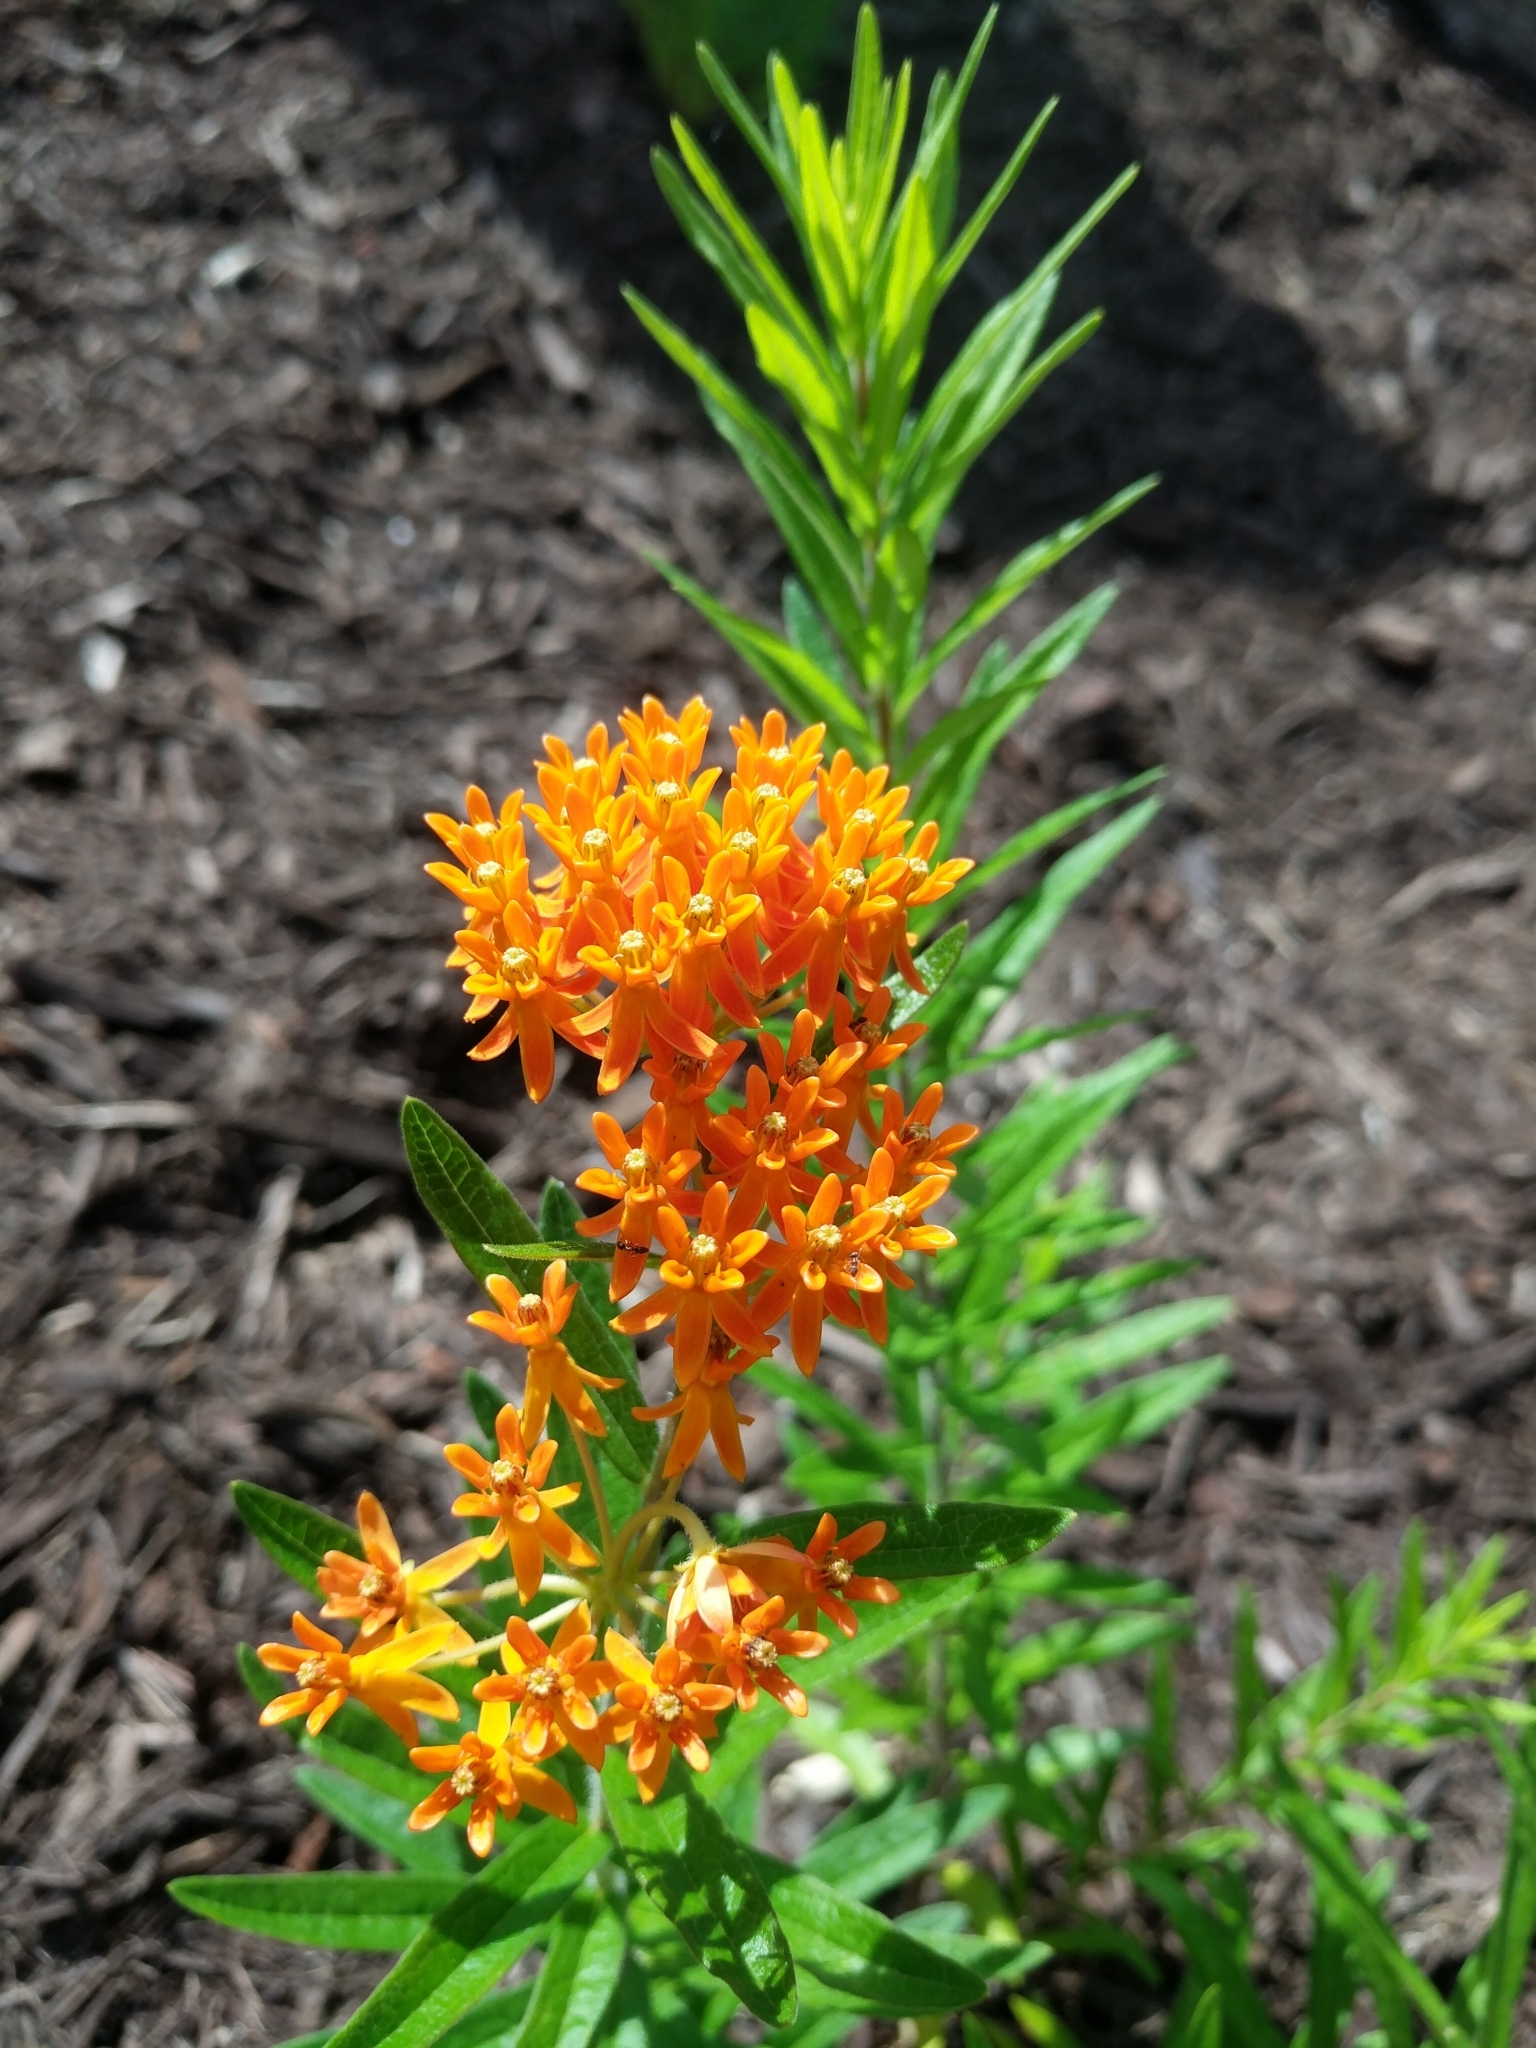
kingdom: Plantae
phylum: Tracheophyta
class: Magnoliopsida
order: Gentianales
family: Apocynaceae
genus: Asclepias
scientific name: Asclepias tuberosa
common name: Butterfly milkweed
